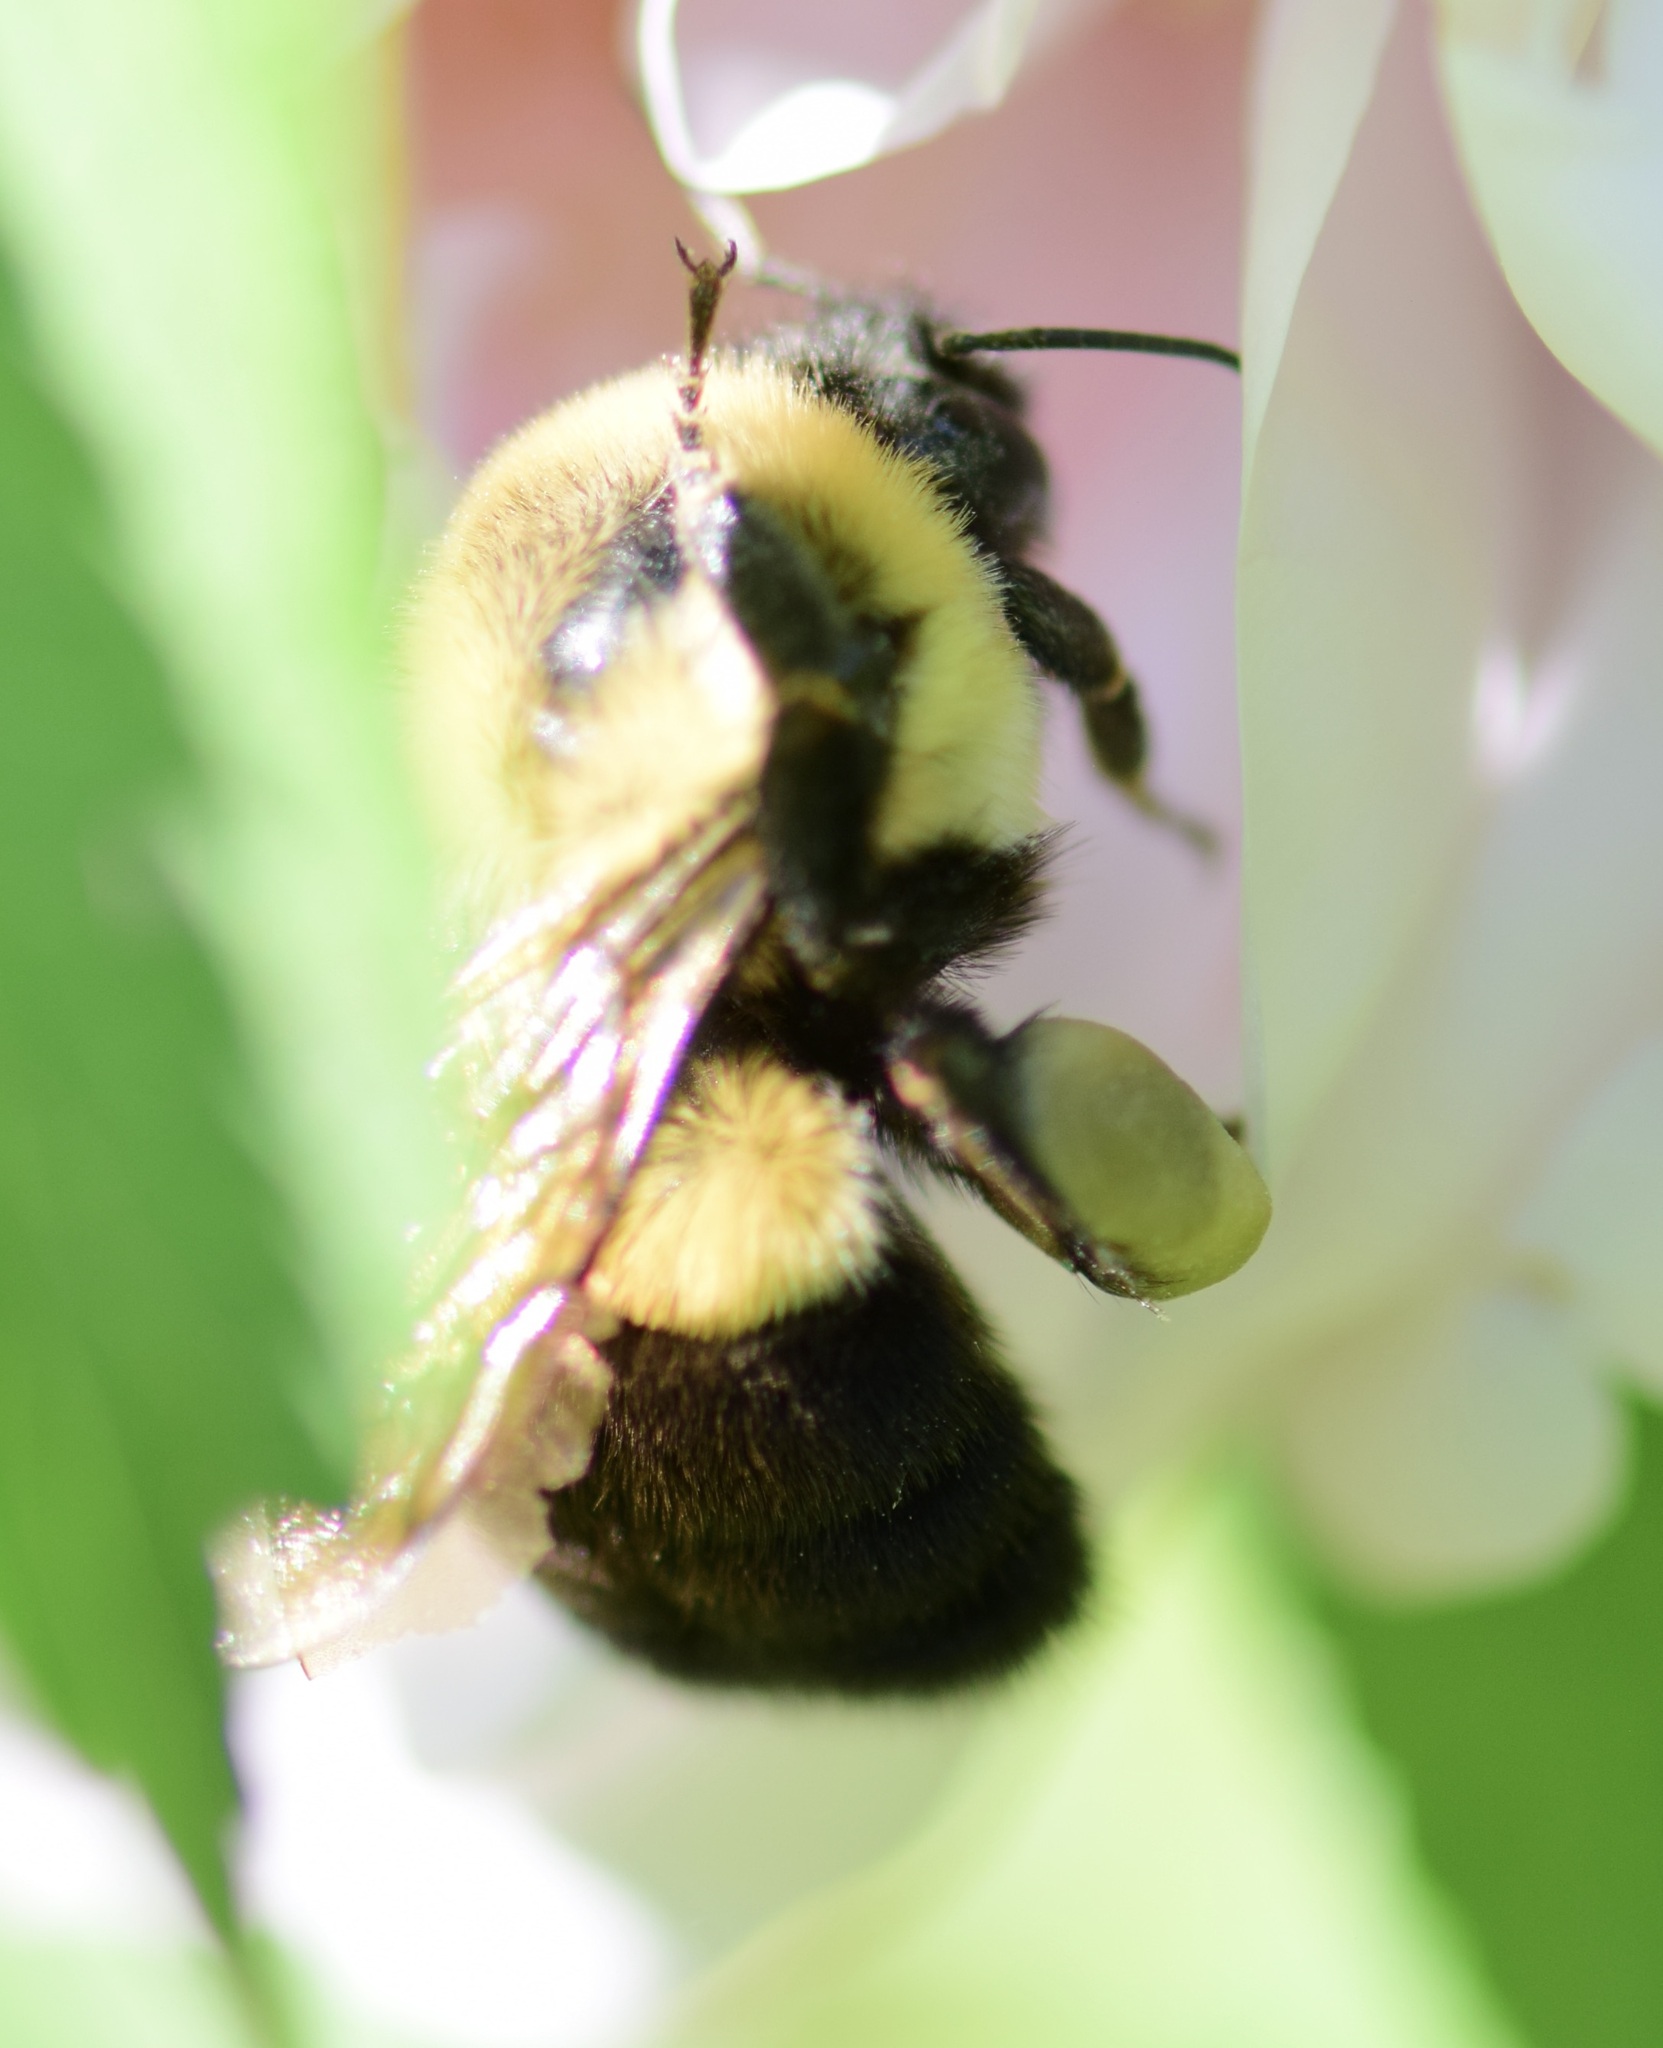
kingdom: Animalia
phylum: Arthropoda
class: Insecta
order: Hymenoptera
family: Apidae
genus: Bombus
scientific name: Bombus impatiens
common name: Common eastern bumble bee
